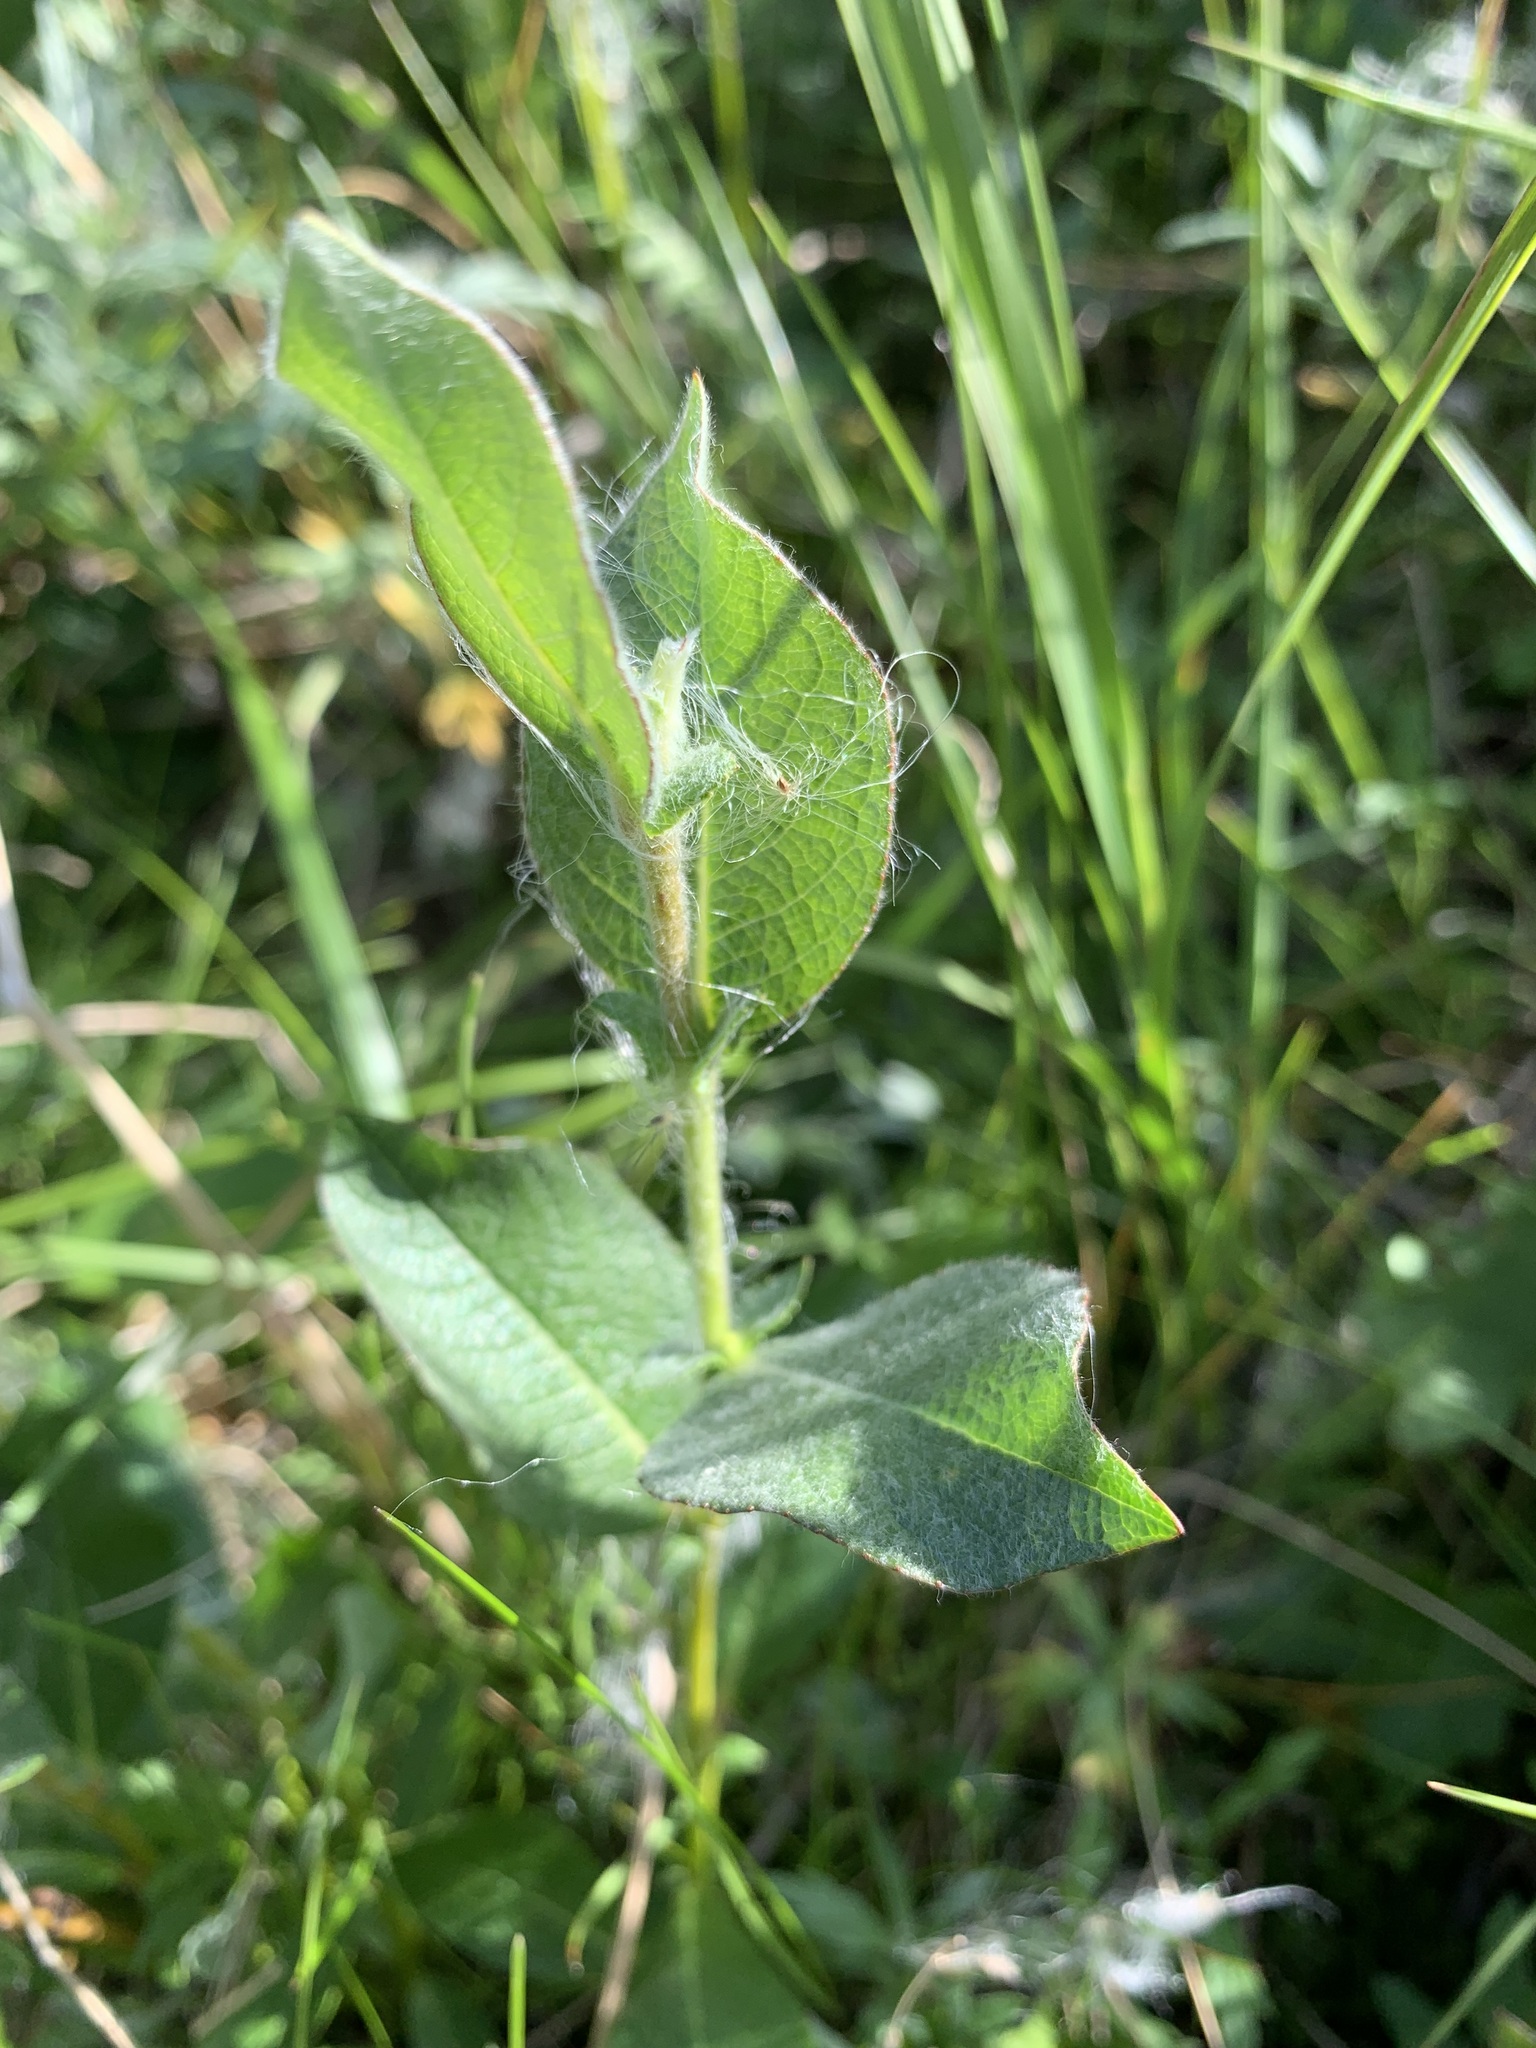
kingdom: Plantae
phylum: Tracheophyta
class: Magnoliopsida
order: Malpighiales
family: Salicaceae
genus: Salix
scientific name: Salix lanata
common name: Woolly willow
